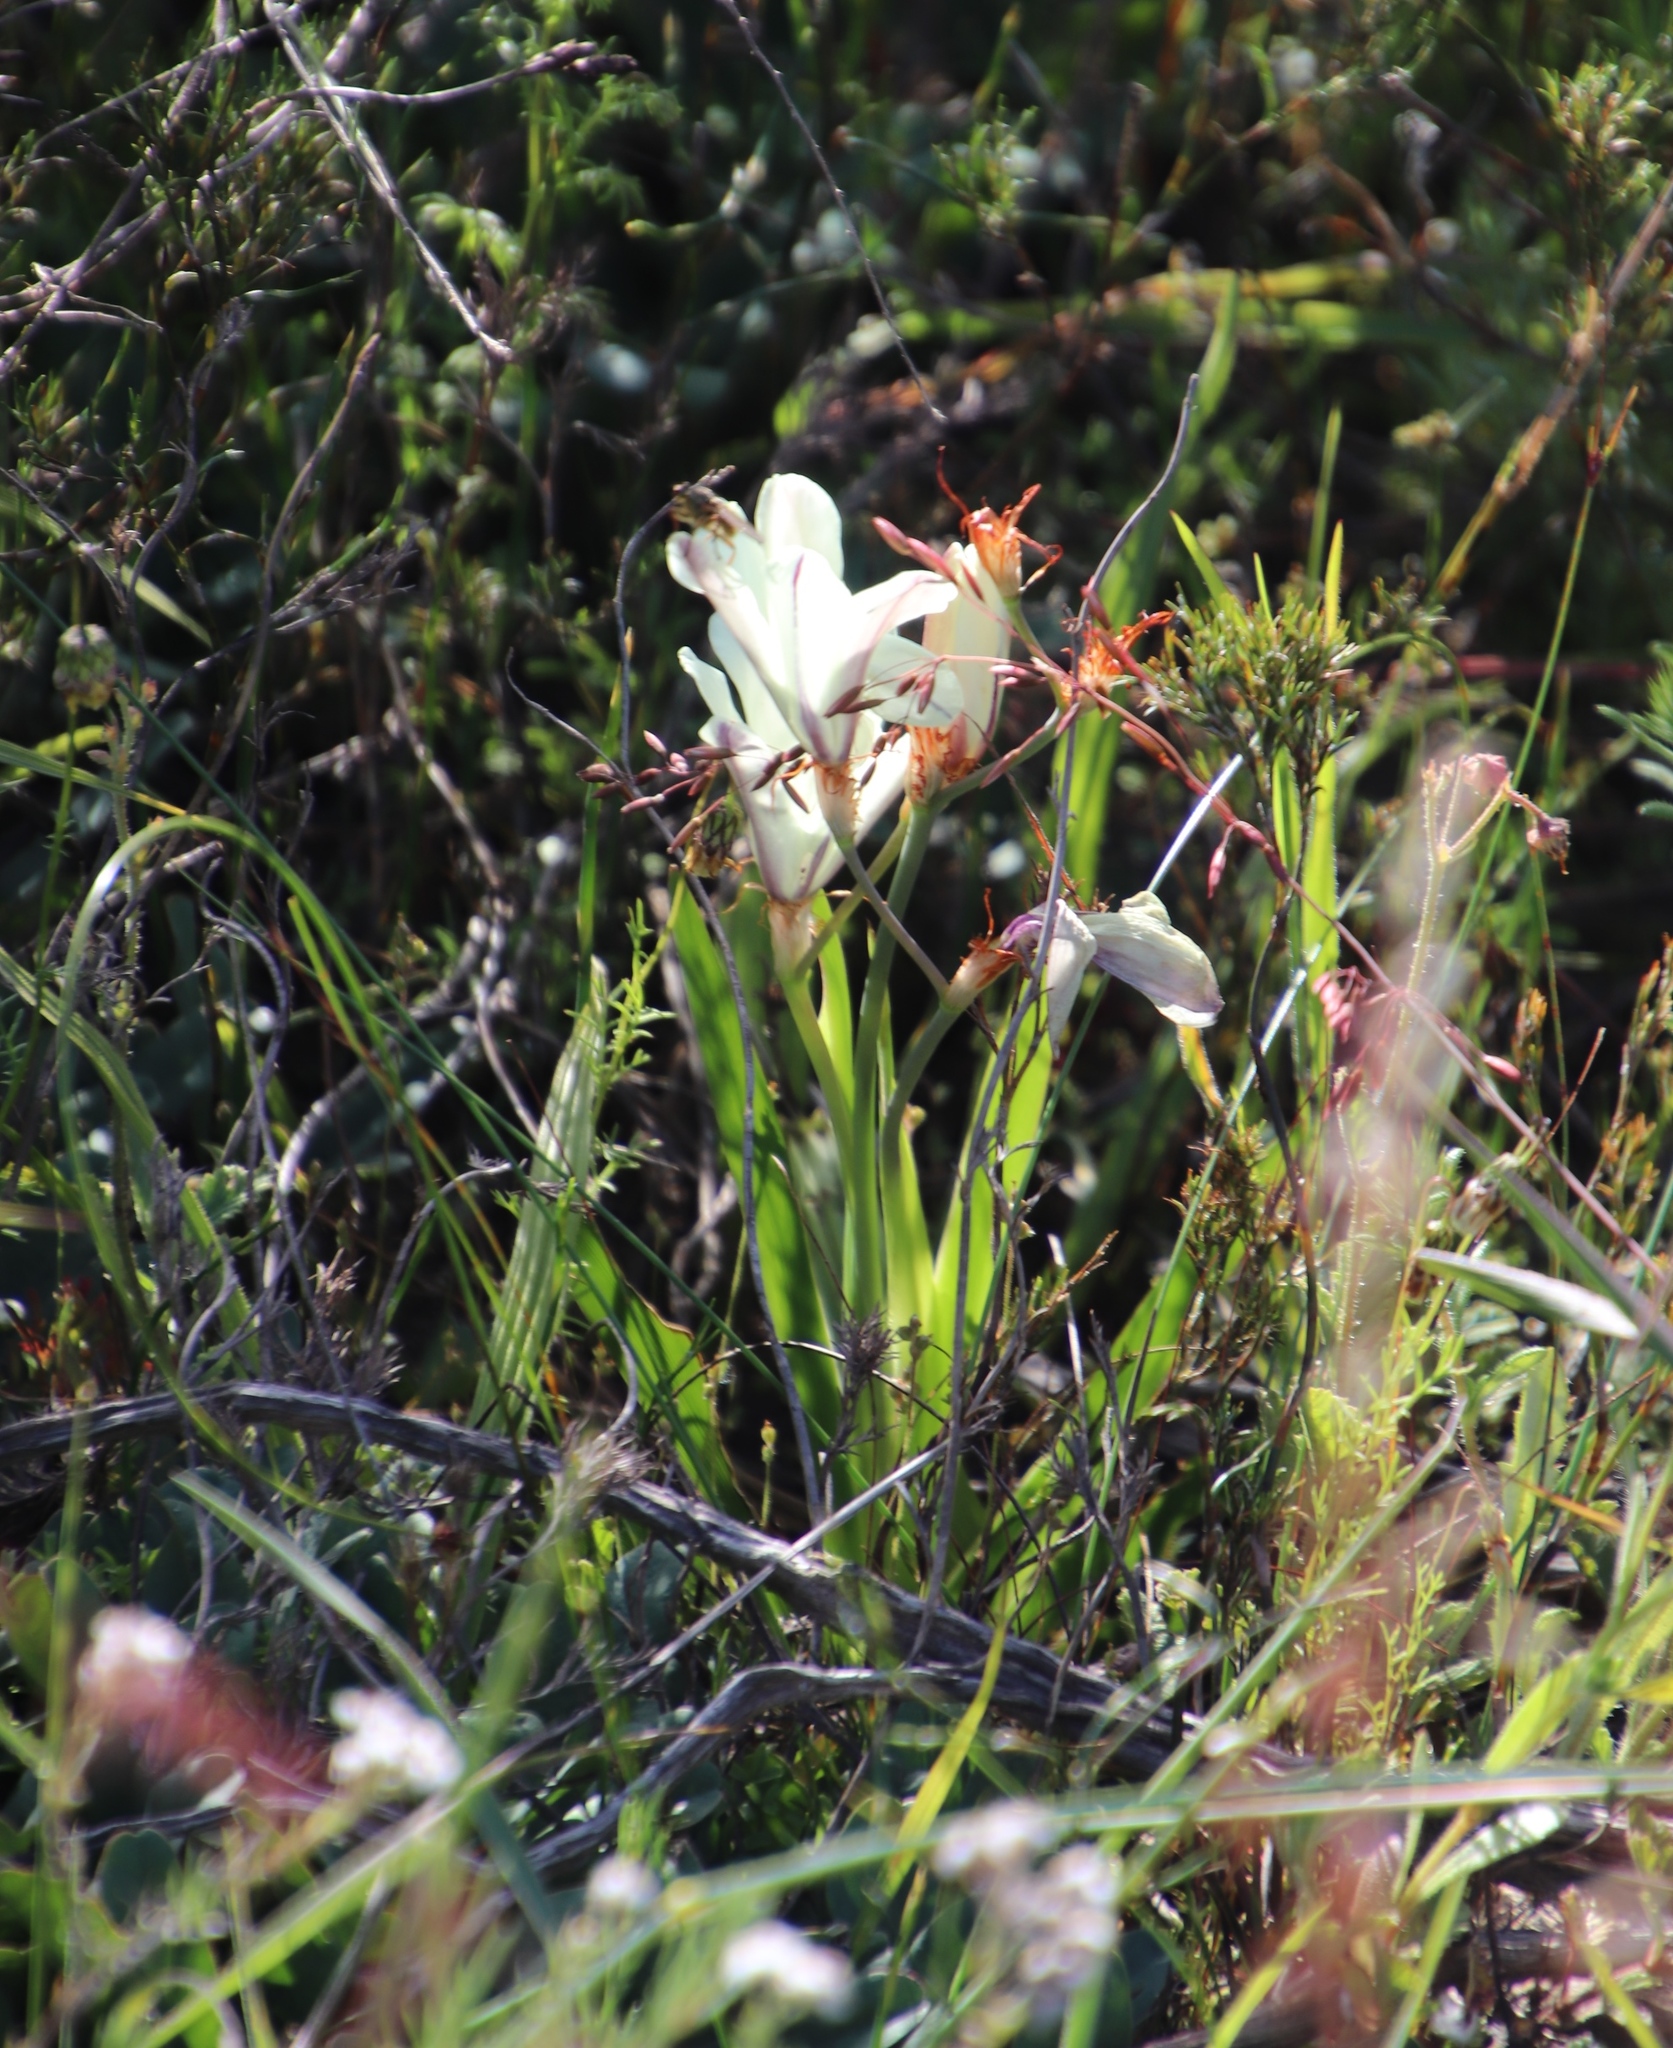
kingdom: Plantae
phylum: Tracheophyta
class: Liliopsida
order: Asparagales
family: Iridaceae
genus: Sparaxis
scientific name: Sparaxis bulbifera
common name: Harlequin-flower
